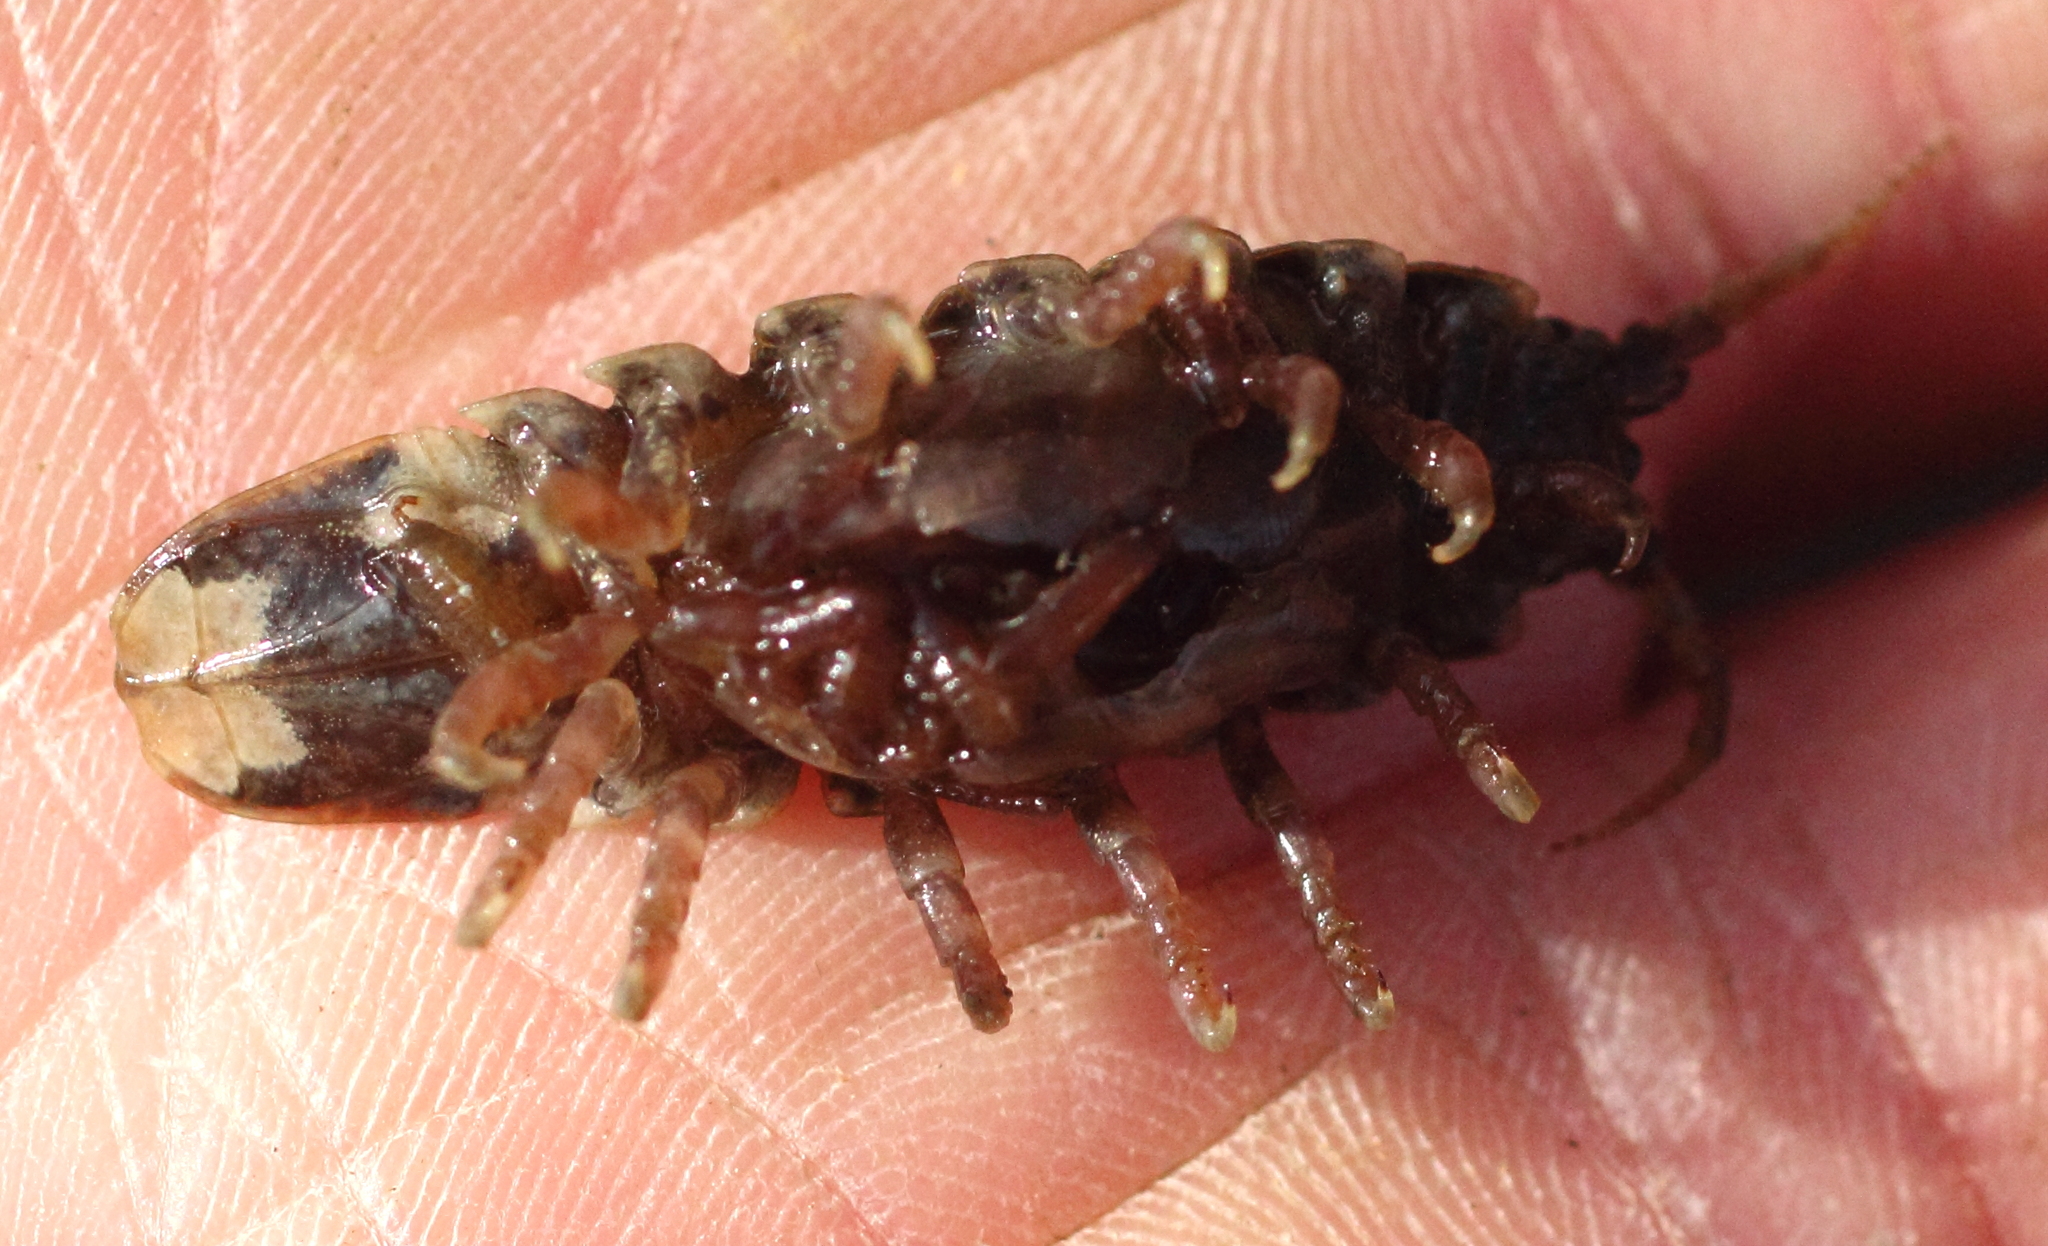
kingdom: Animalia
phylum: Arthropoda
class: Malacostraca
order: Isopoda
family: Idoteidae
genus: Pentidotea
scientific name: Pentidotea wosnesenskii
